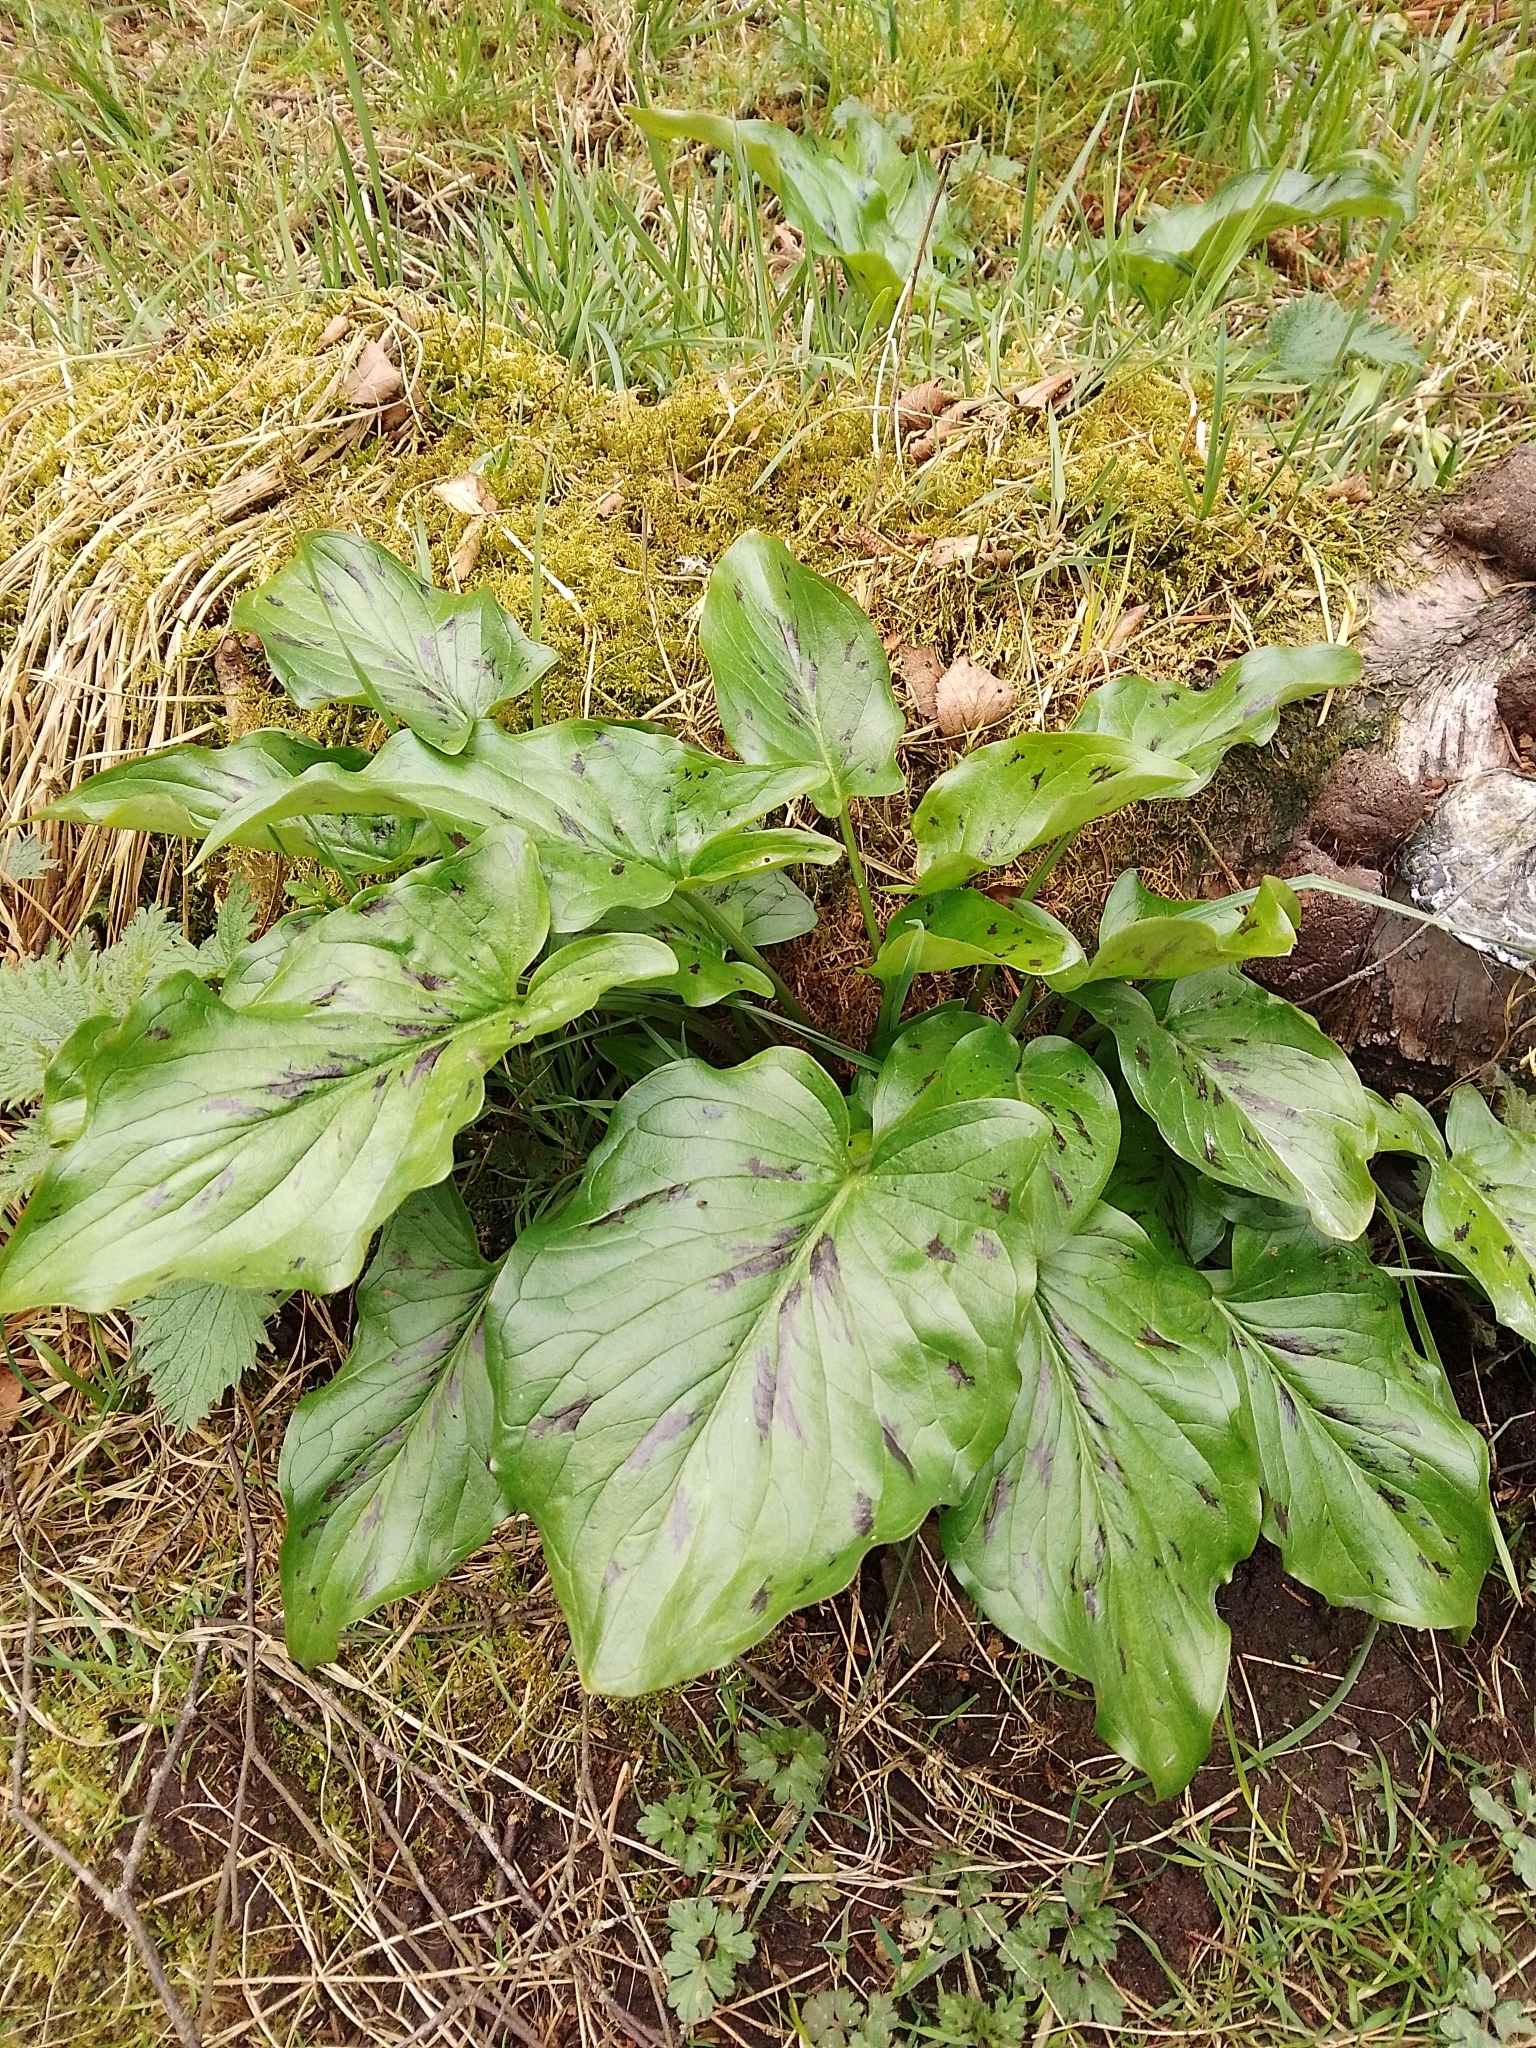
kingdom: Plantae
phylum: Tracheophyta
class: Liliopsida
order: Alismatales
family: Araceae
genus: Arum
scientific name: Arum maculatum
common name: Lords-and-ladies
